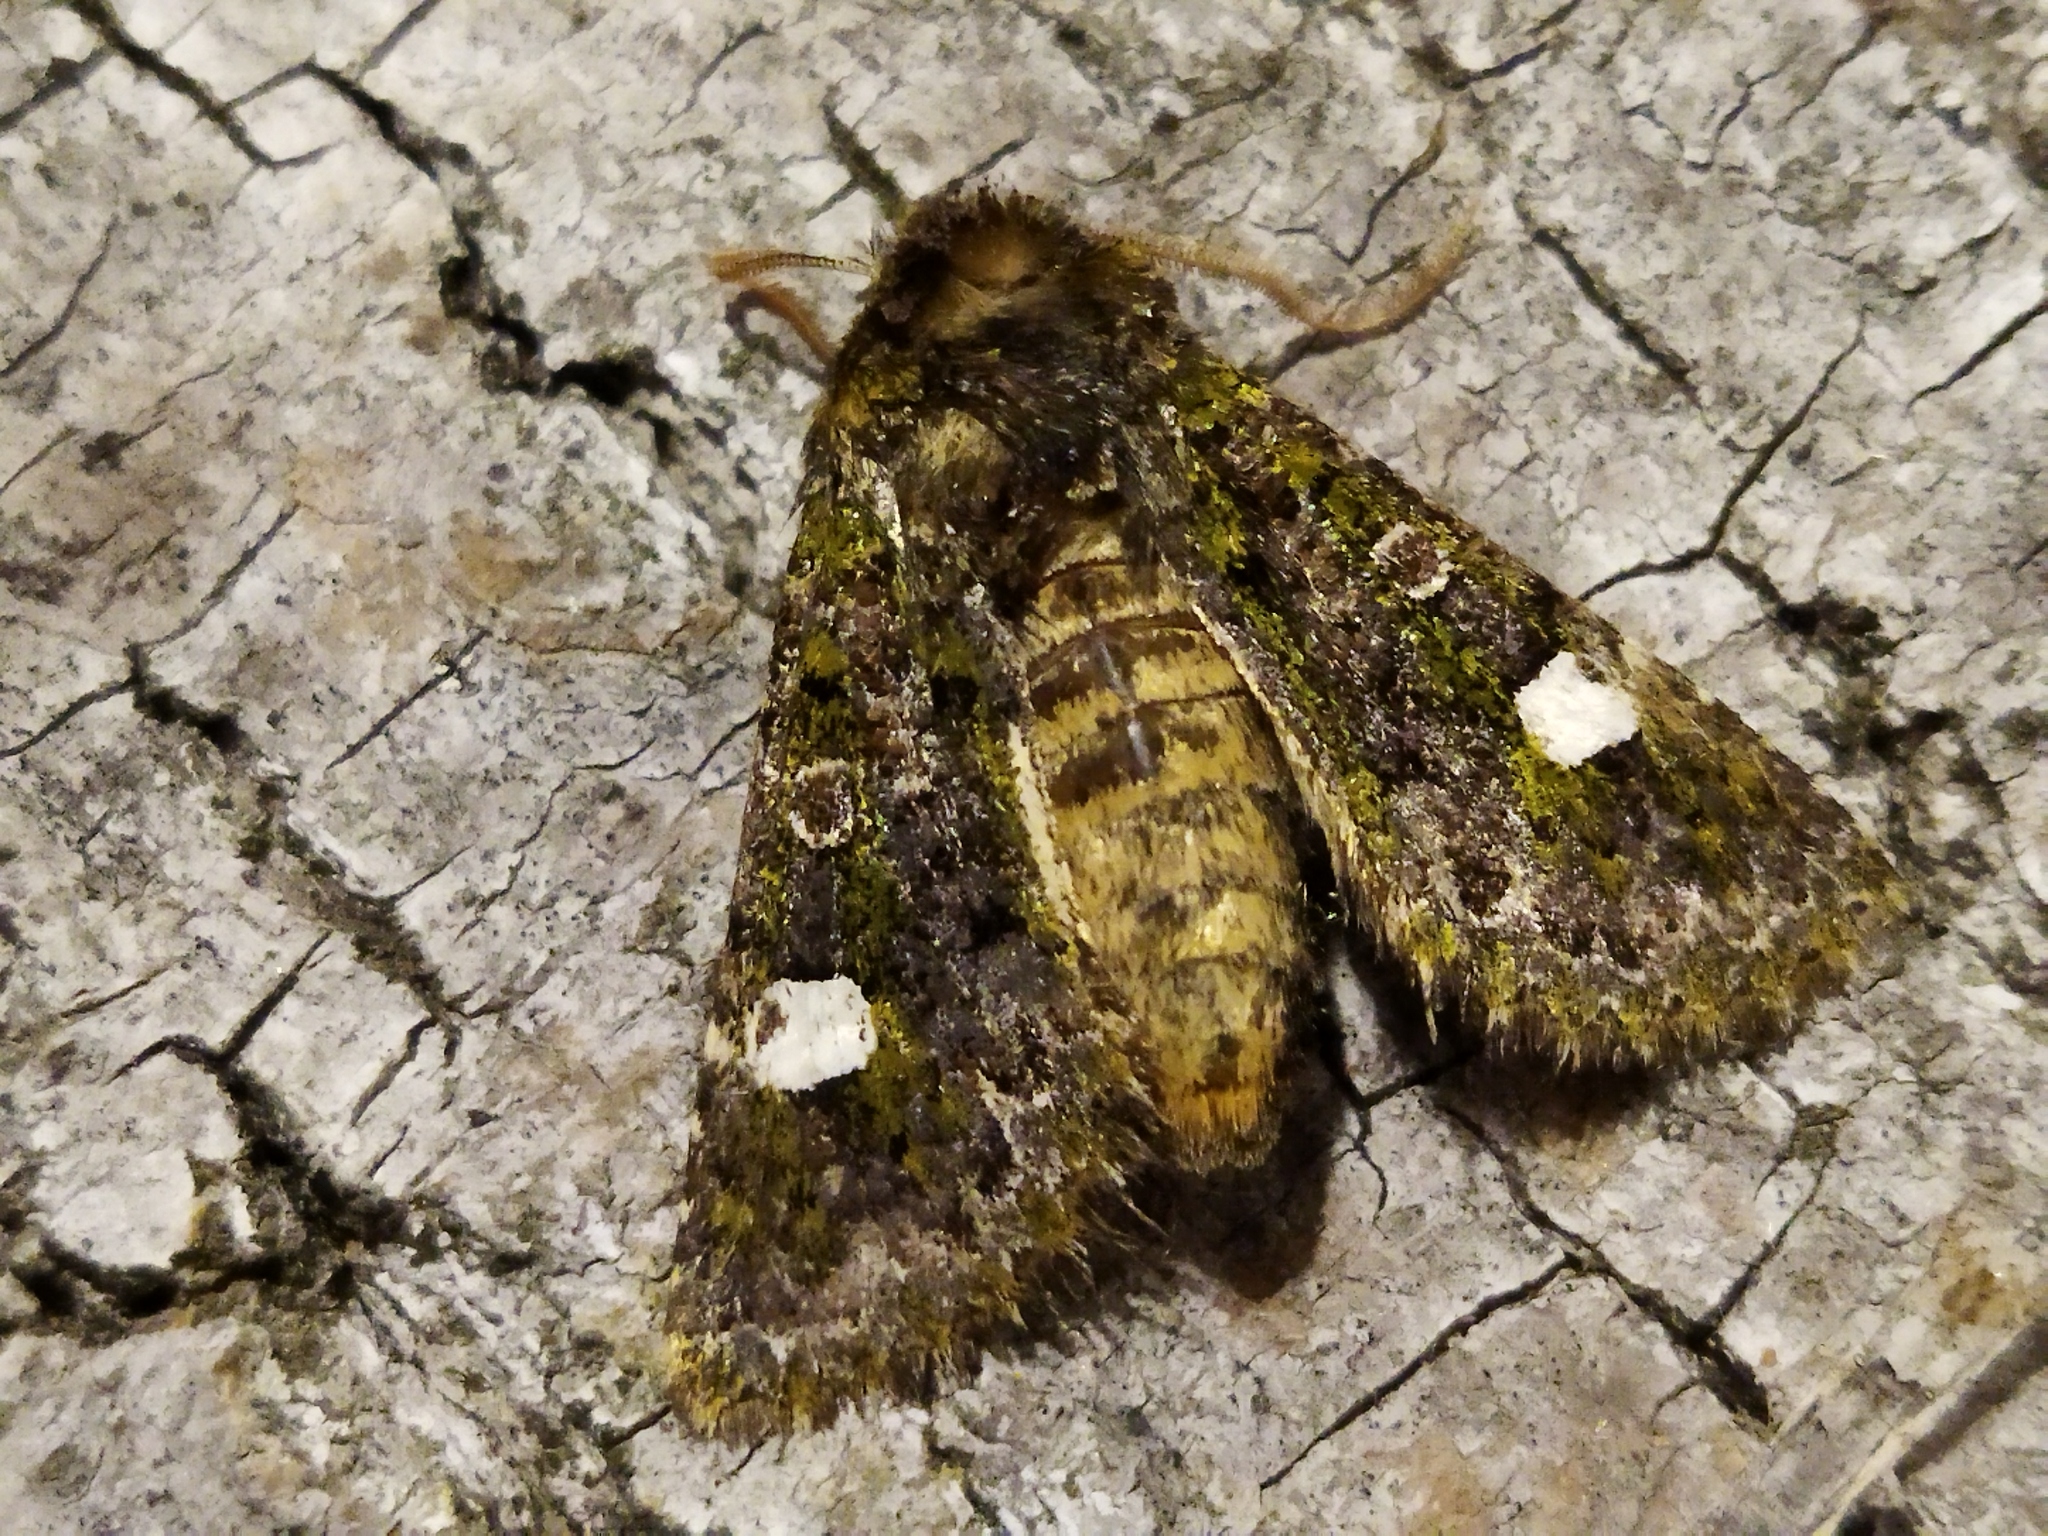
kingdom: Animalia
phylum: Arthropoda
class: Insecta
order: Lepidoptera
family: Noctuidae
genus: Valeria
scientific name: Valeria oleagina
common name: Green-brindled dot
